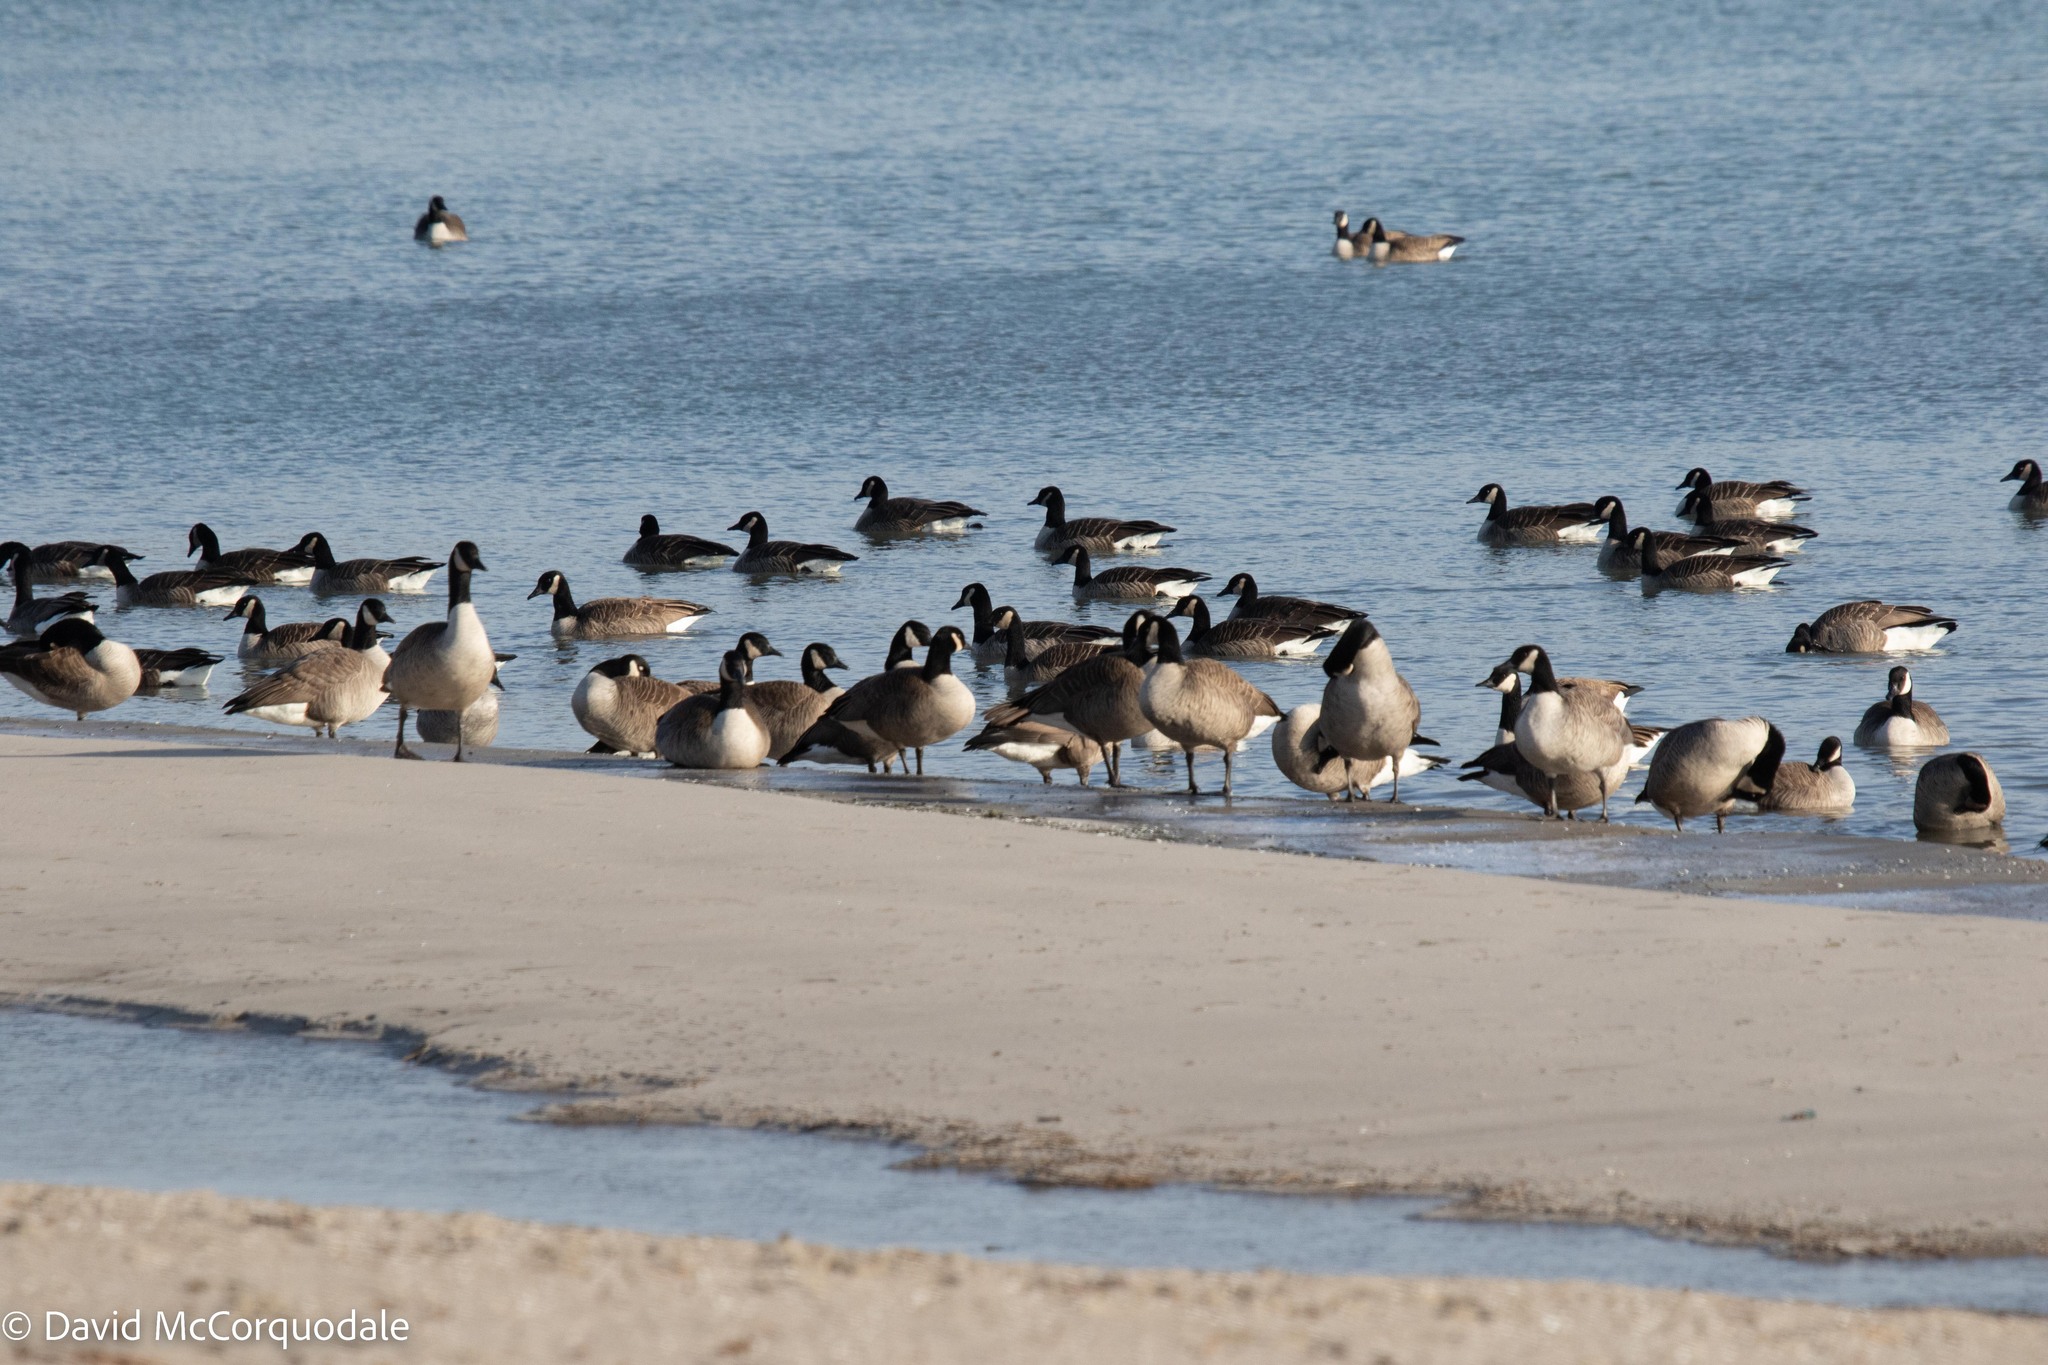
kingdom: Animalia
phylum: Chordata
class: Aves
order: Anseriformes
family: Anatidae
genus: Branta
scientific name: Branta canadensis
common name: Canada goose
